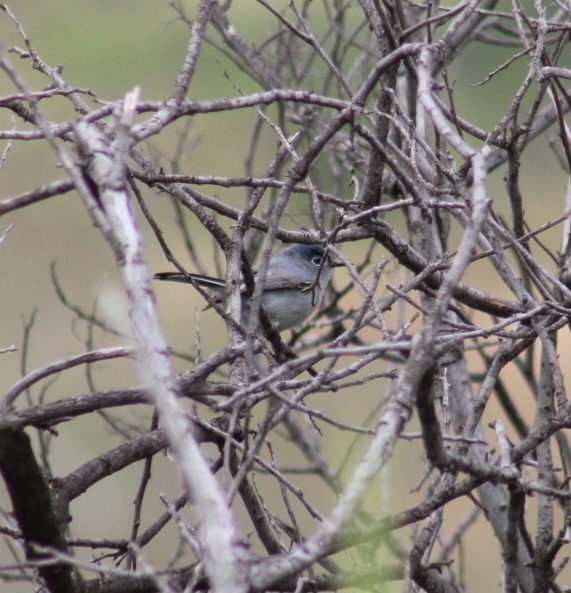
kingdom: Animalia
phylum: Chordata
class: Aves
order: Passeriformes
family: Polioptilidae
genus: Polioptila
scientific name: Polioptila caerulea
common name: Blue-gray gnatcatcher
